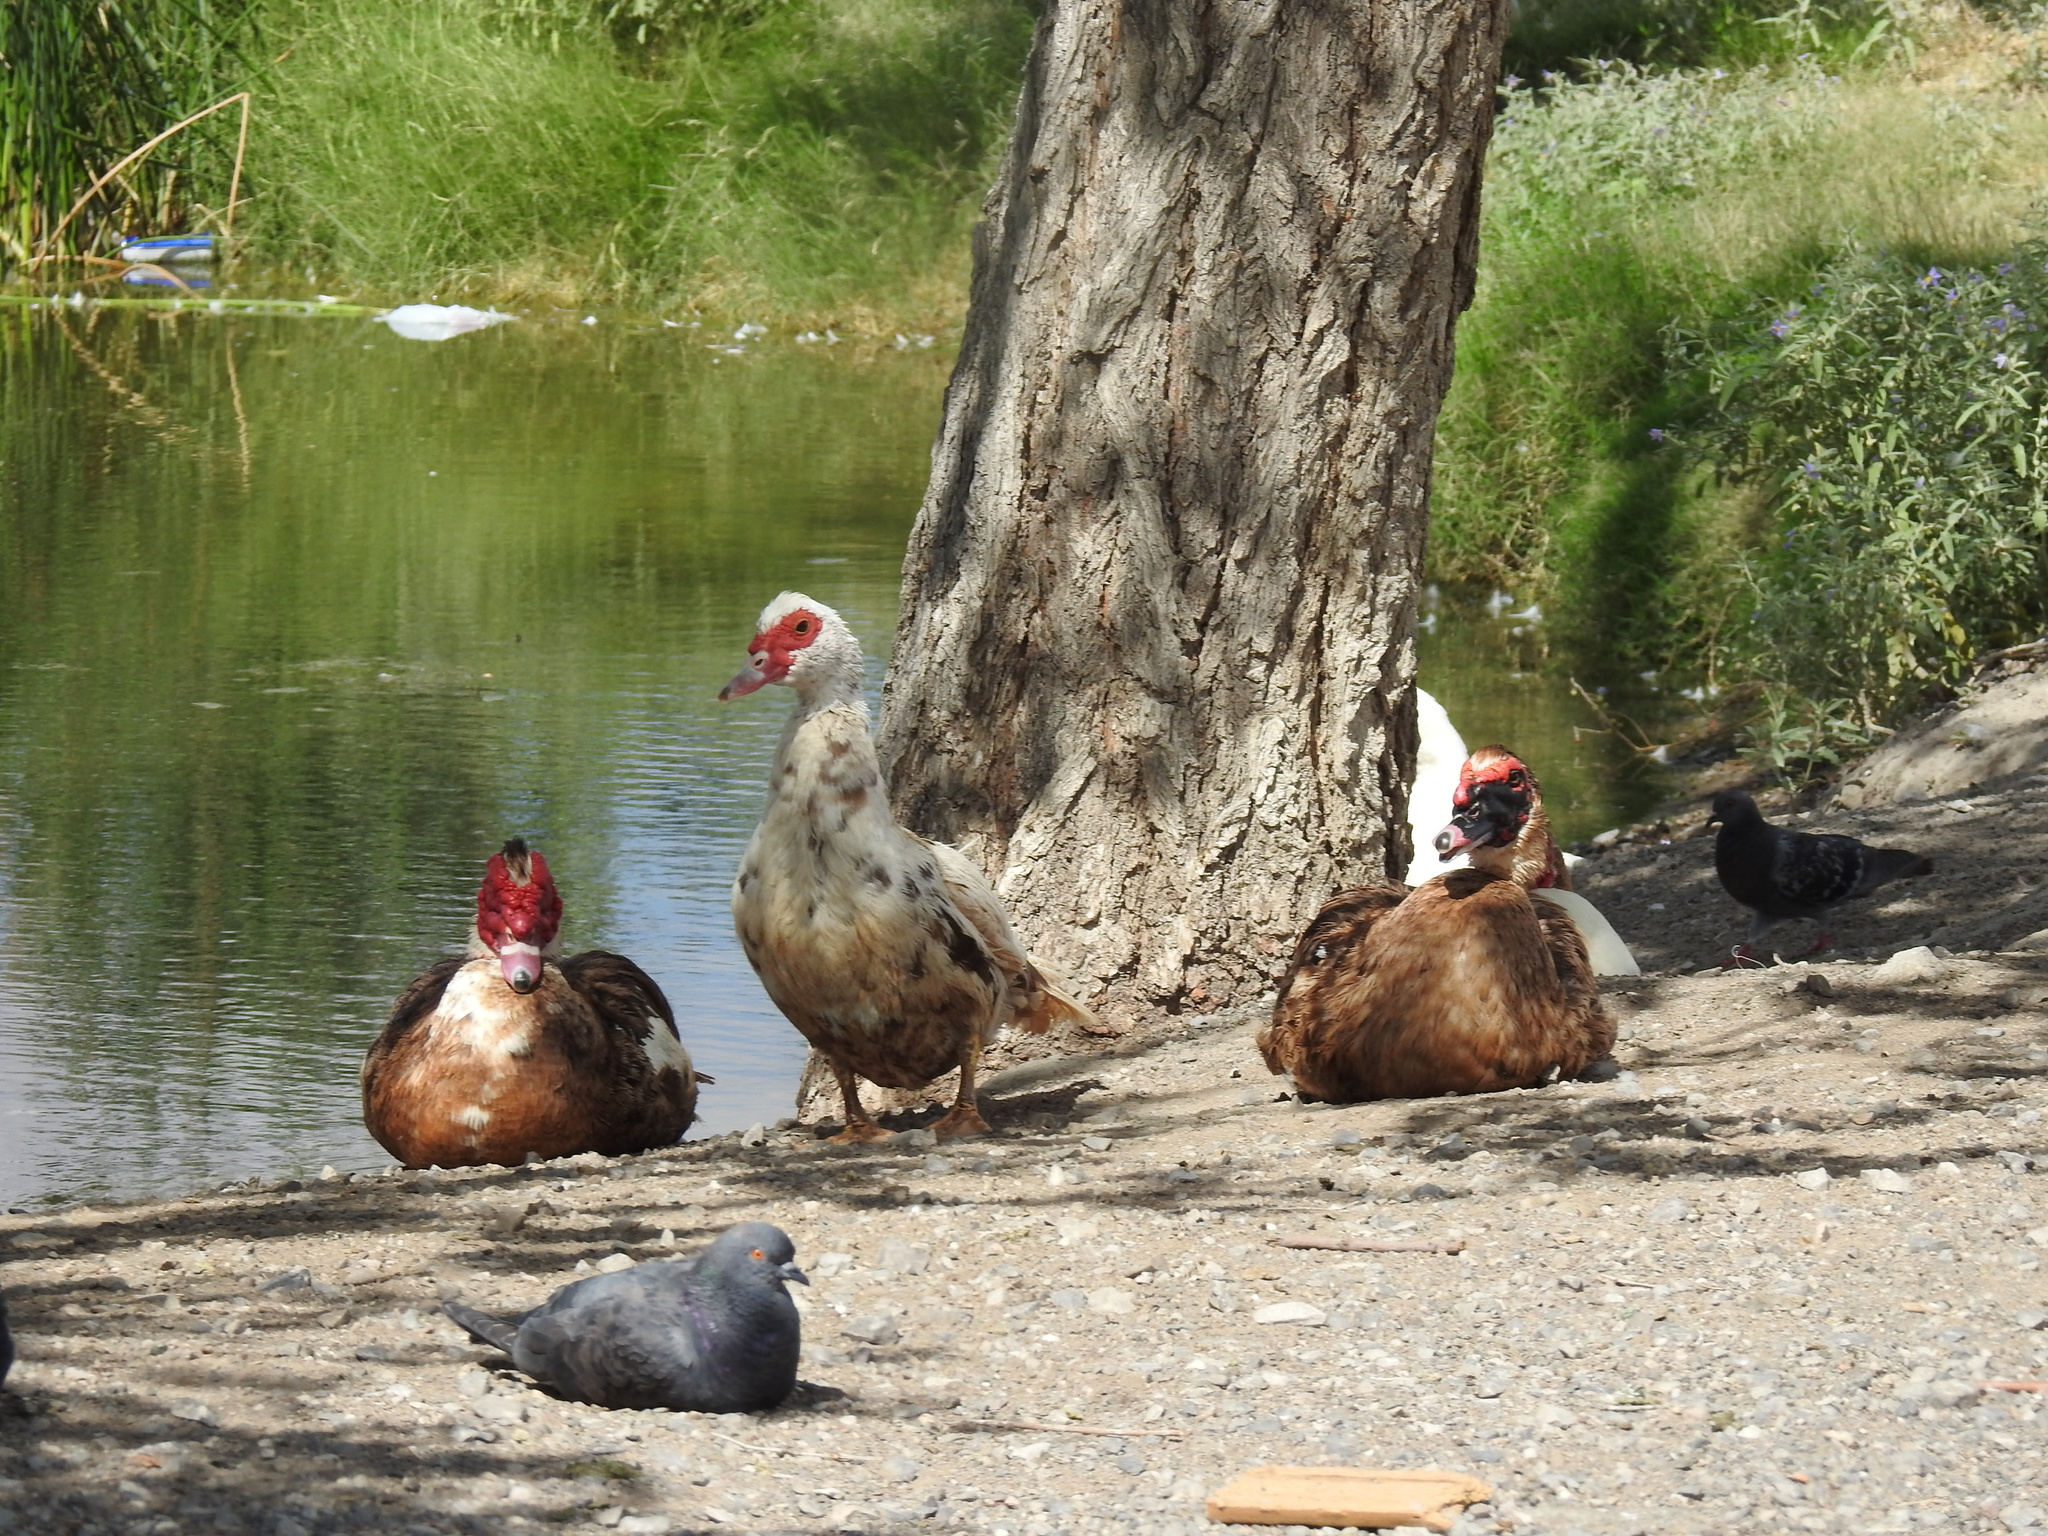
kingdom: Animalia
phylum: Chordata
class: Aves
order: Anseriformes
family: Anatidae
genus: Cairina
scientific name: Cairina moschata
